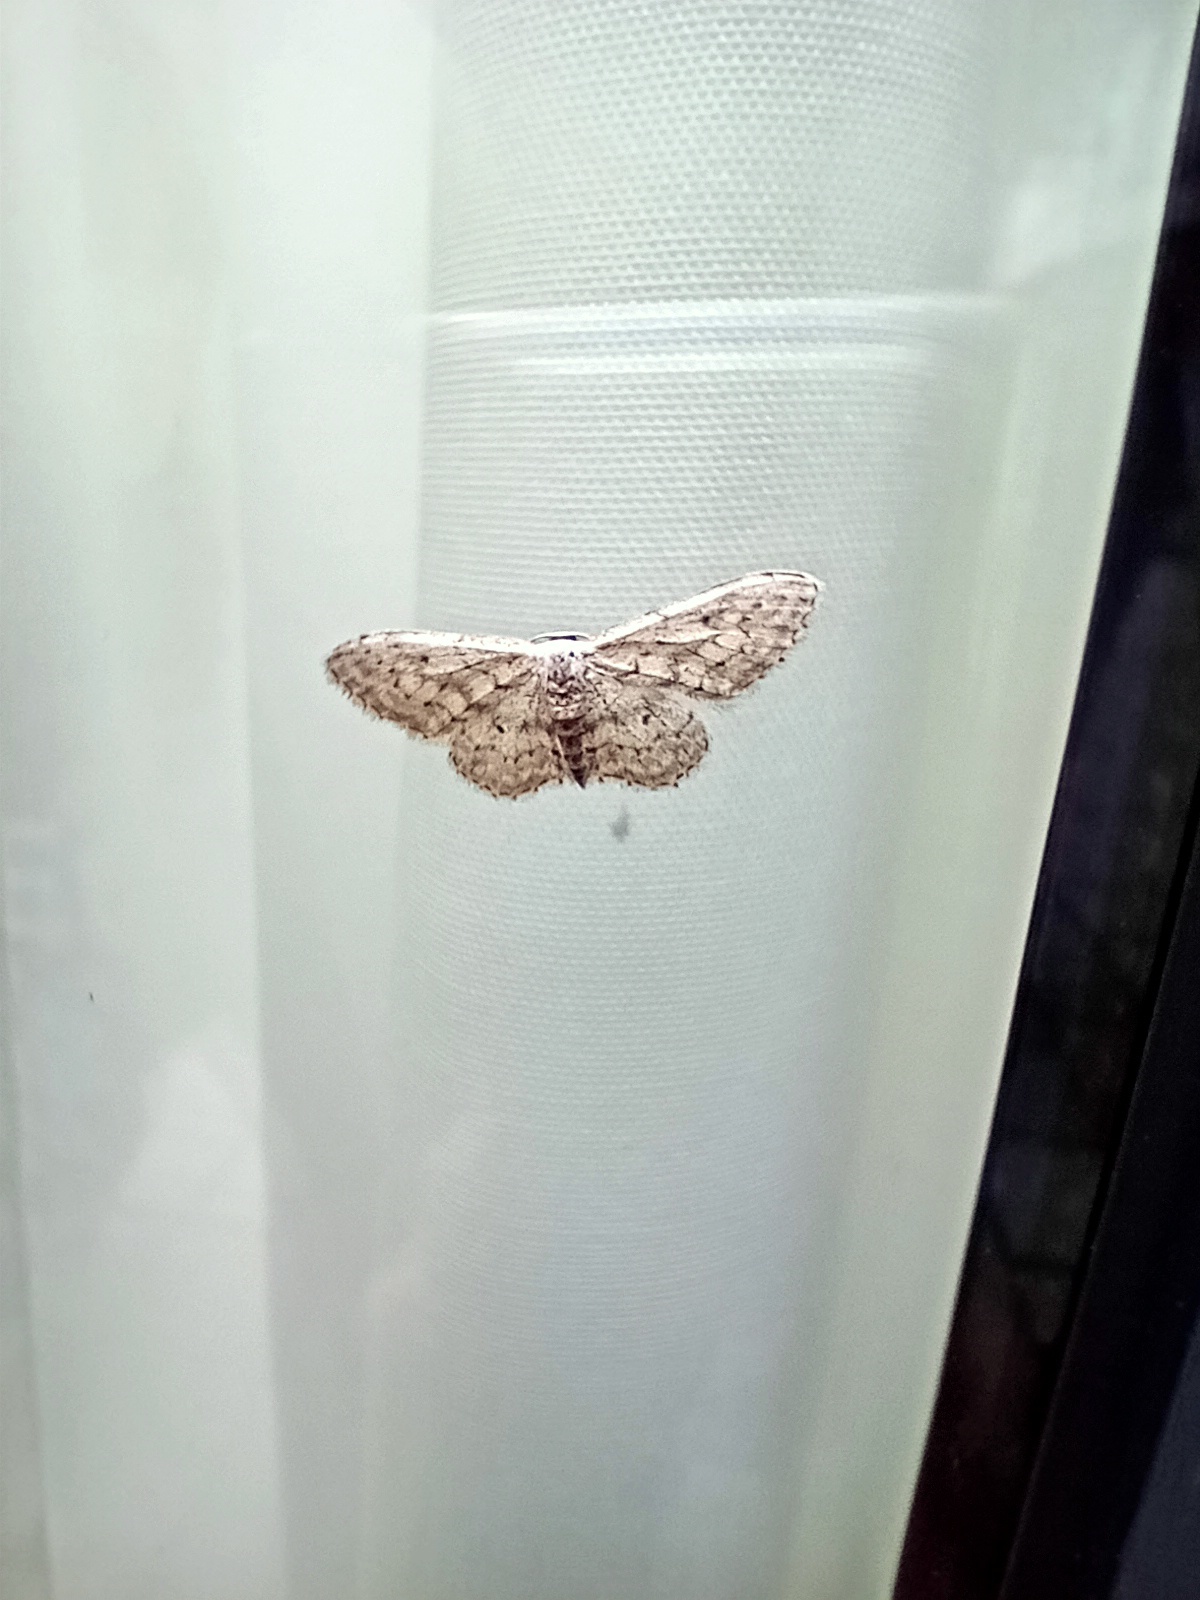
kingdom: Animalia
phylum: Arthropoda
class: Insecta
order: Lepidoptera
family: Geometridae
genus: Idaea
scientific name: Idaea seriata
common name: Small dusty wave
